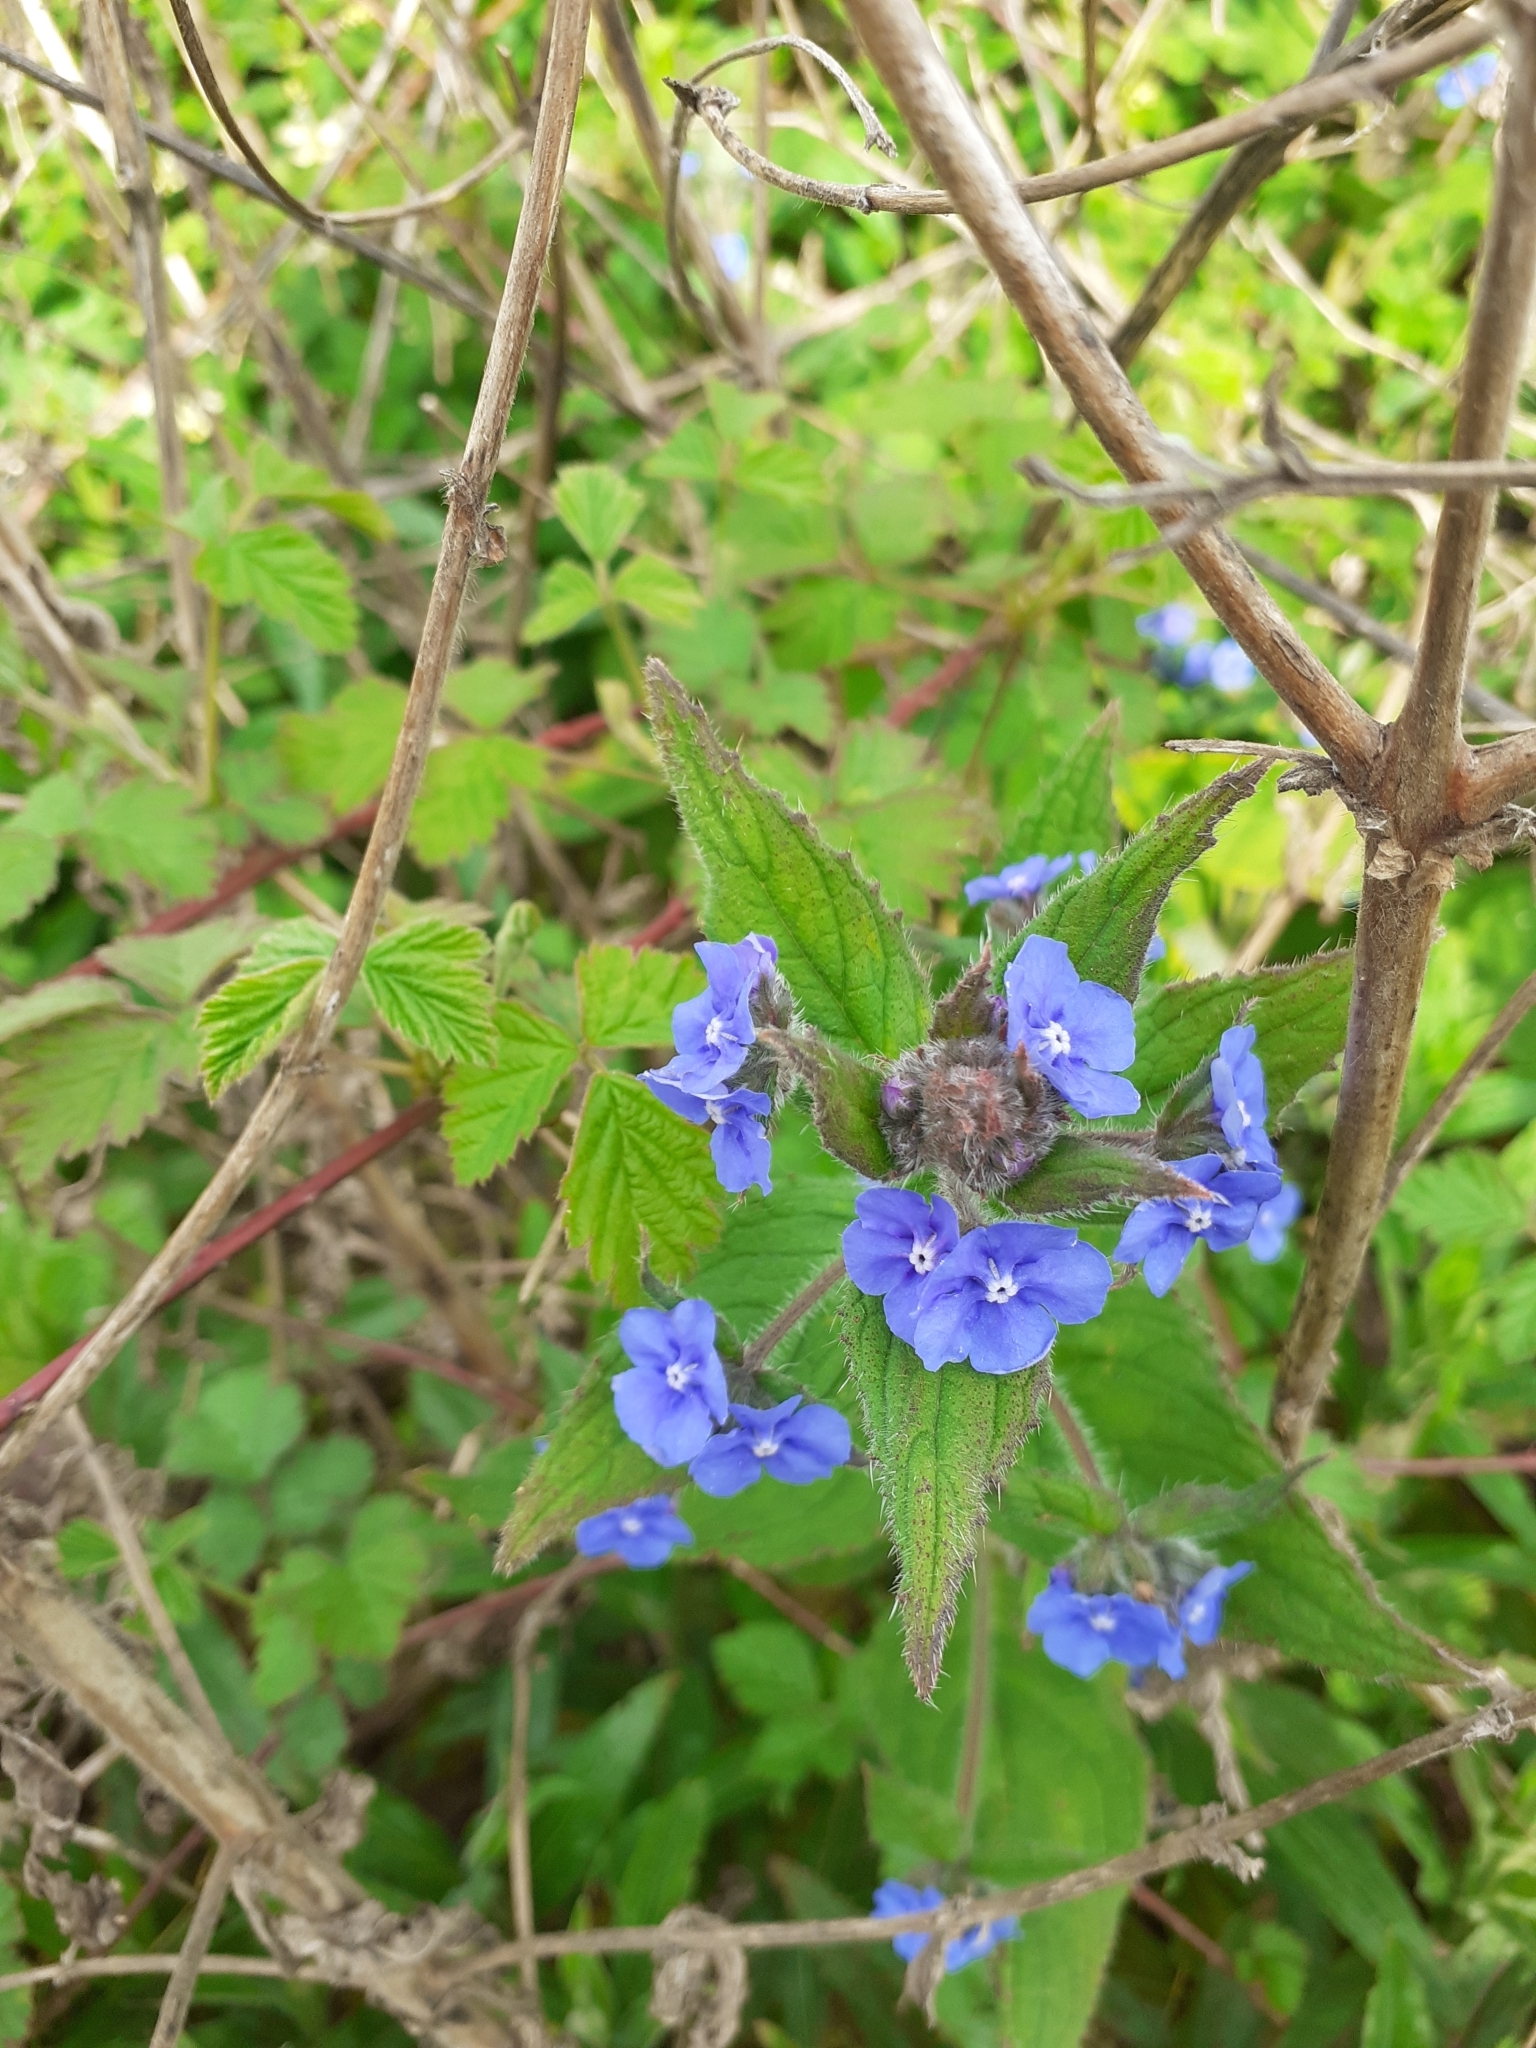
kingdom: Plantae
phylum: Tracheophyta
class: Magnoliopsida
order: Boraginales
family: Boraginaceae
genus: Pentaglottis
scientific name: Pentaglottis sempervirens
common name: Green alkanet
